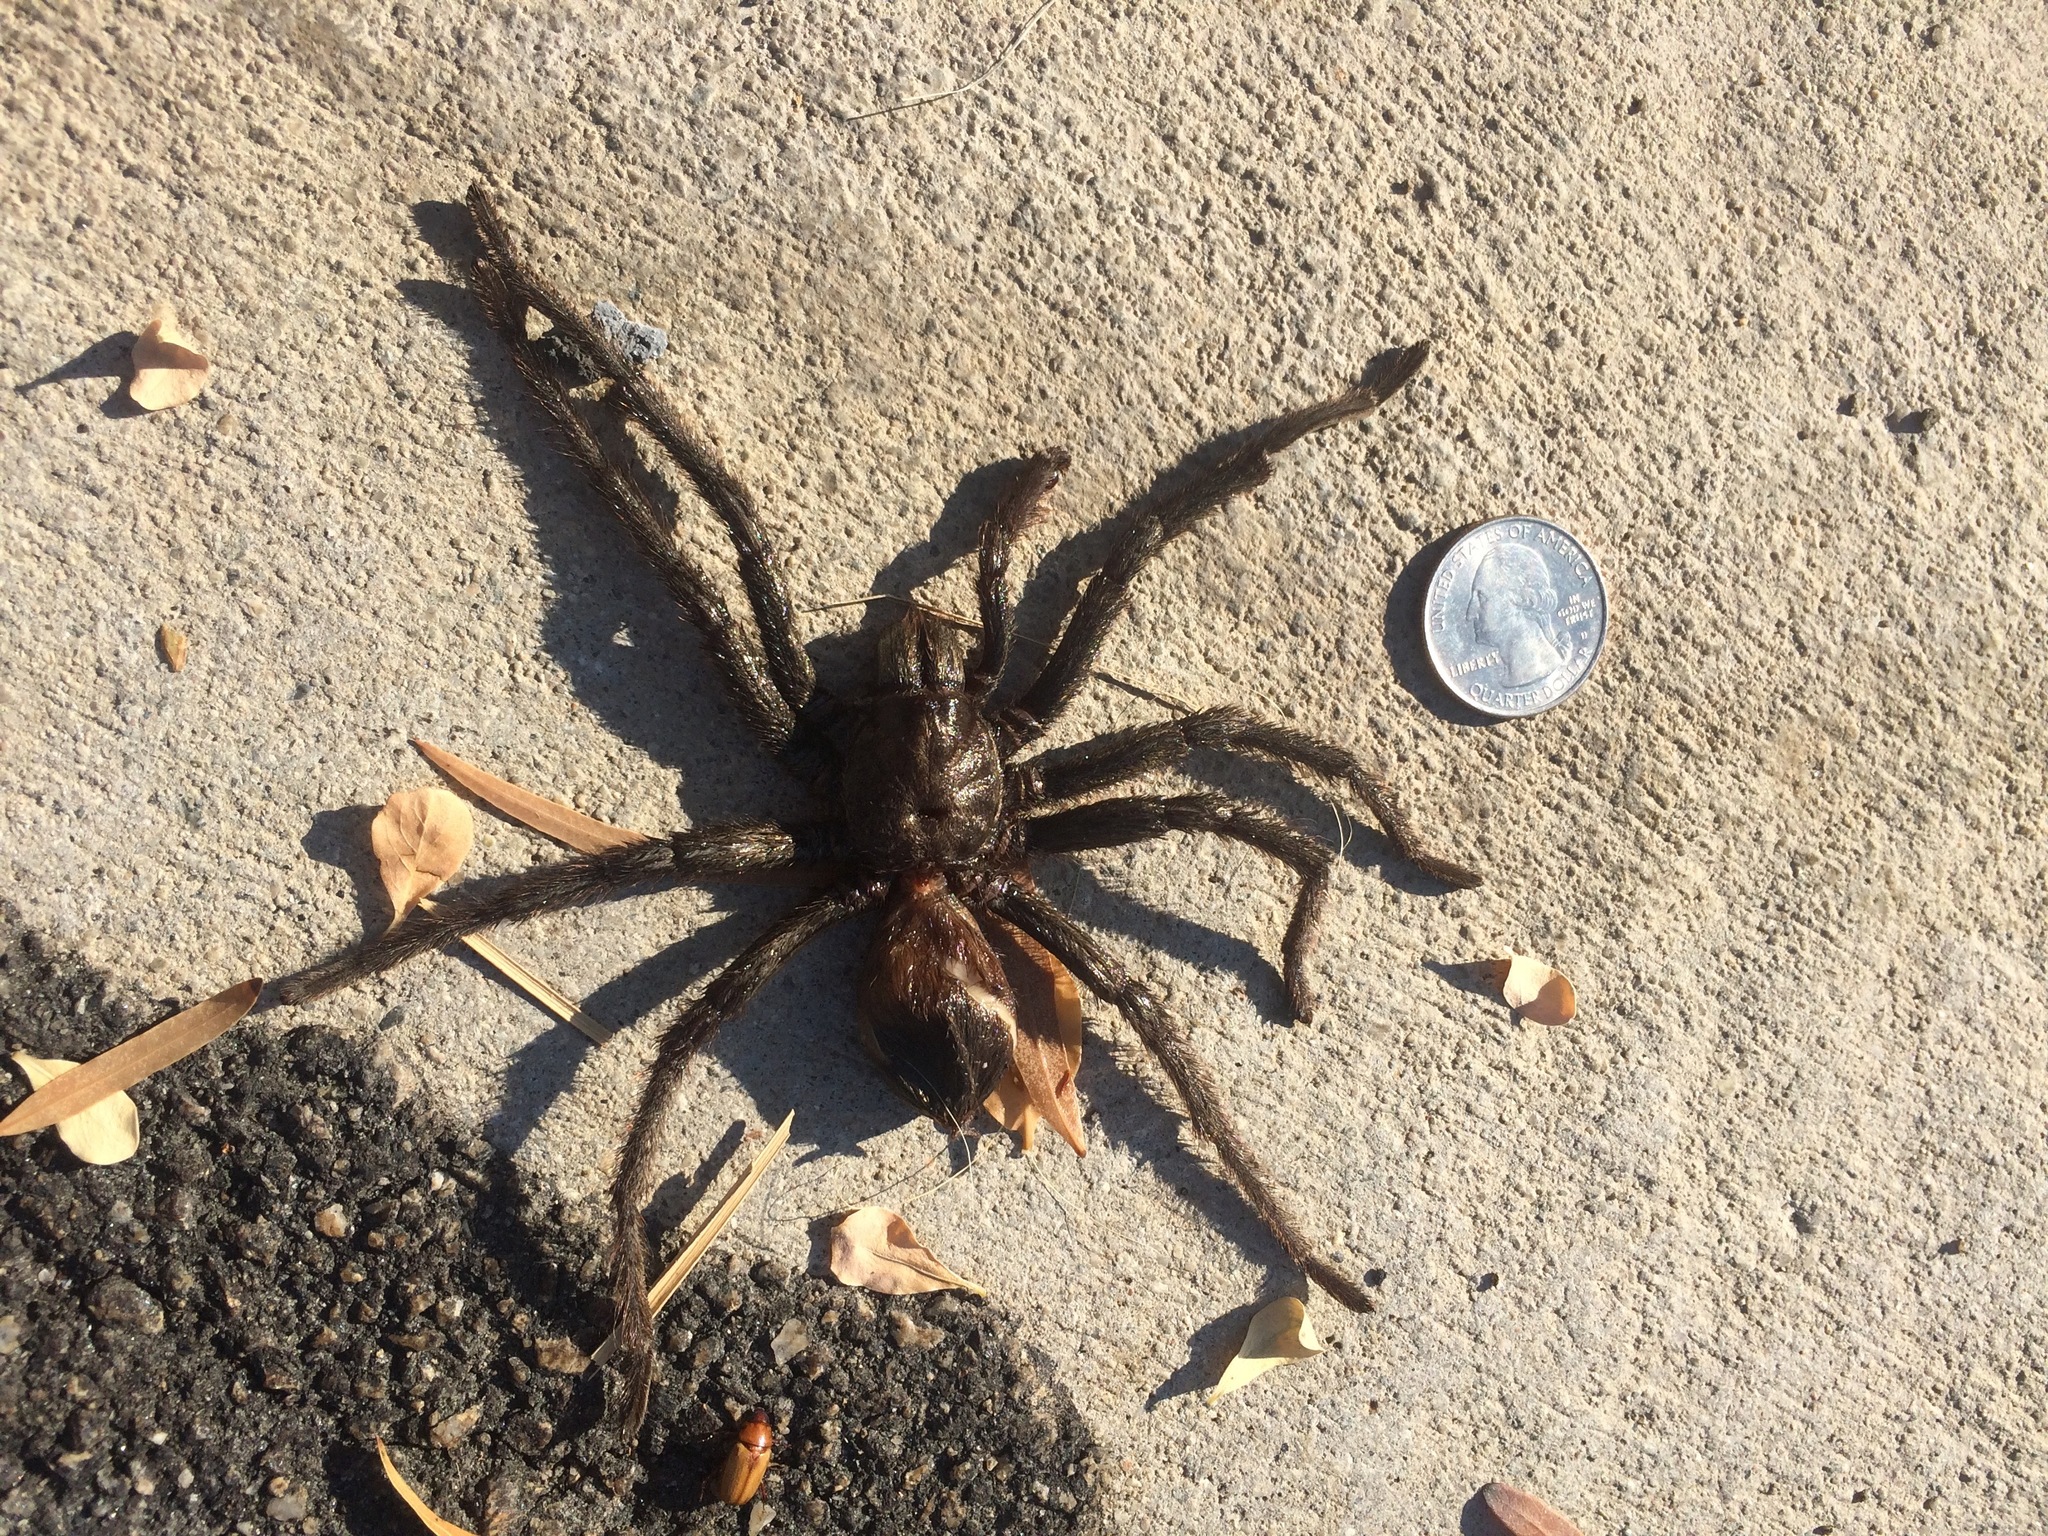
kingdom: Animalia
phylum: Arthropoda
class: Arachnida
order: Araneae
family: Theraphosidae
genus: Aphonopelma
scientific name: Aphonopelma eutylenum
